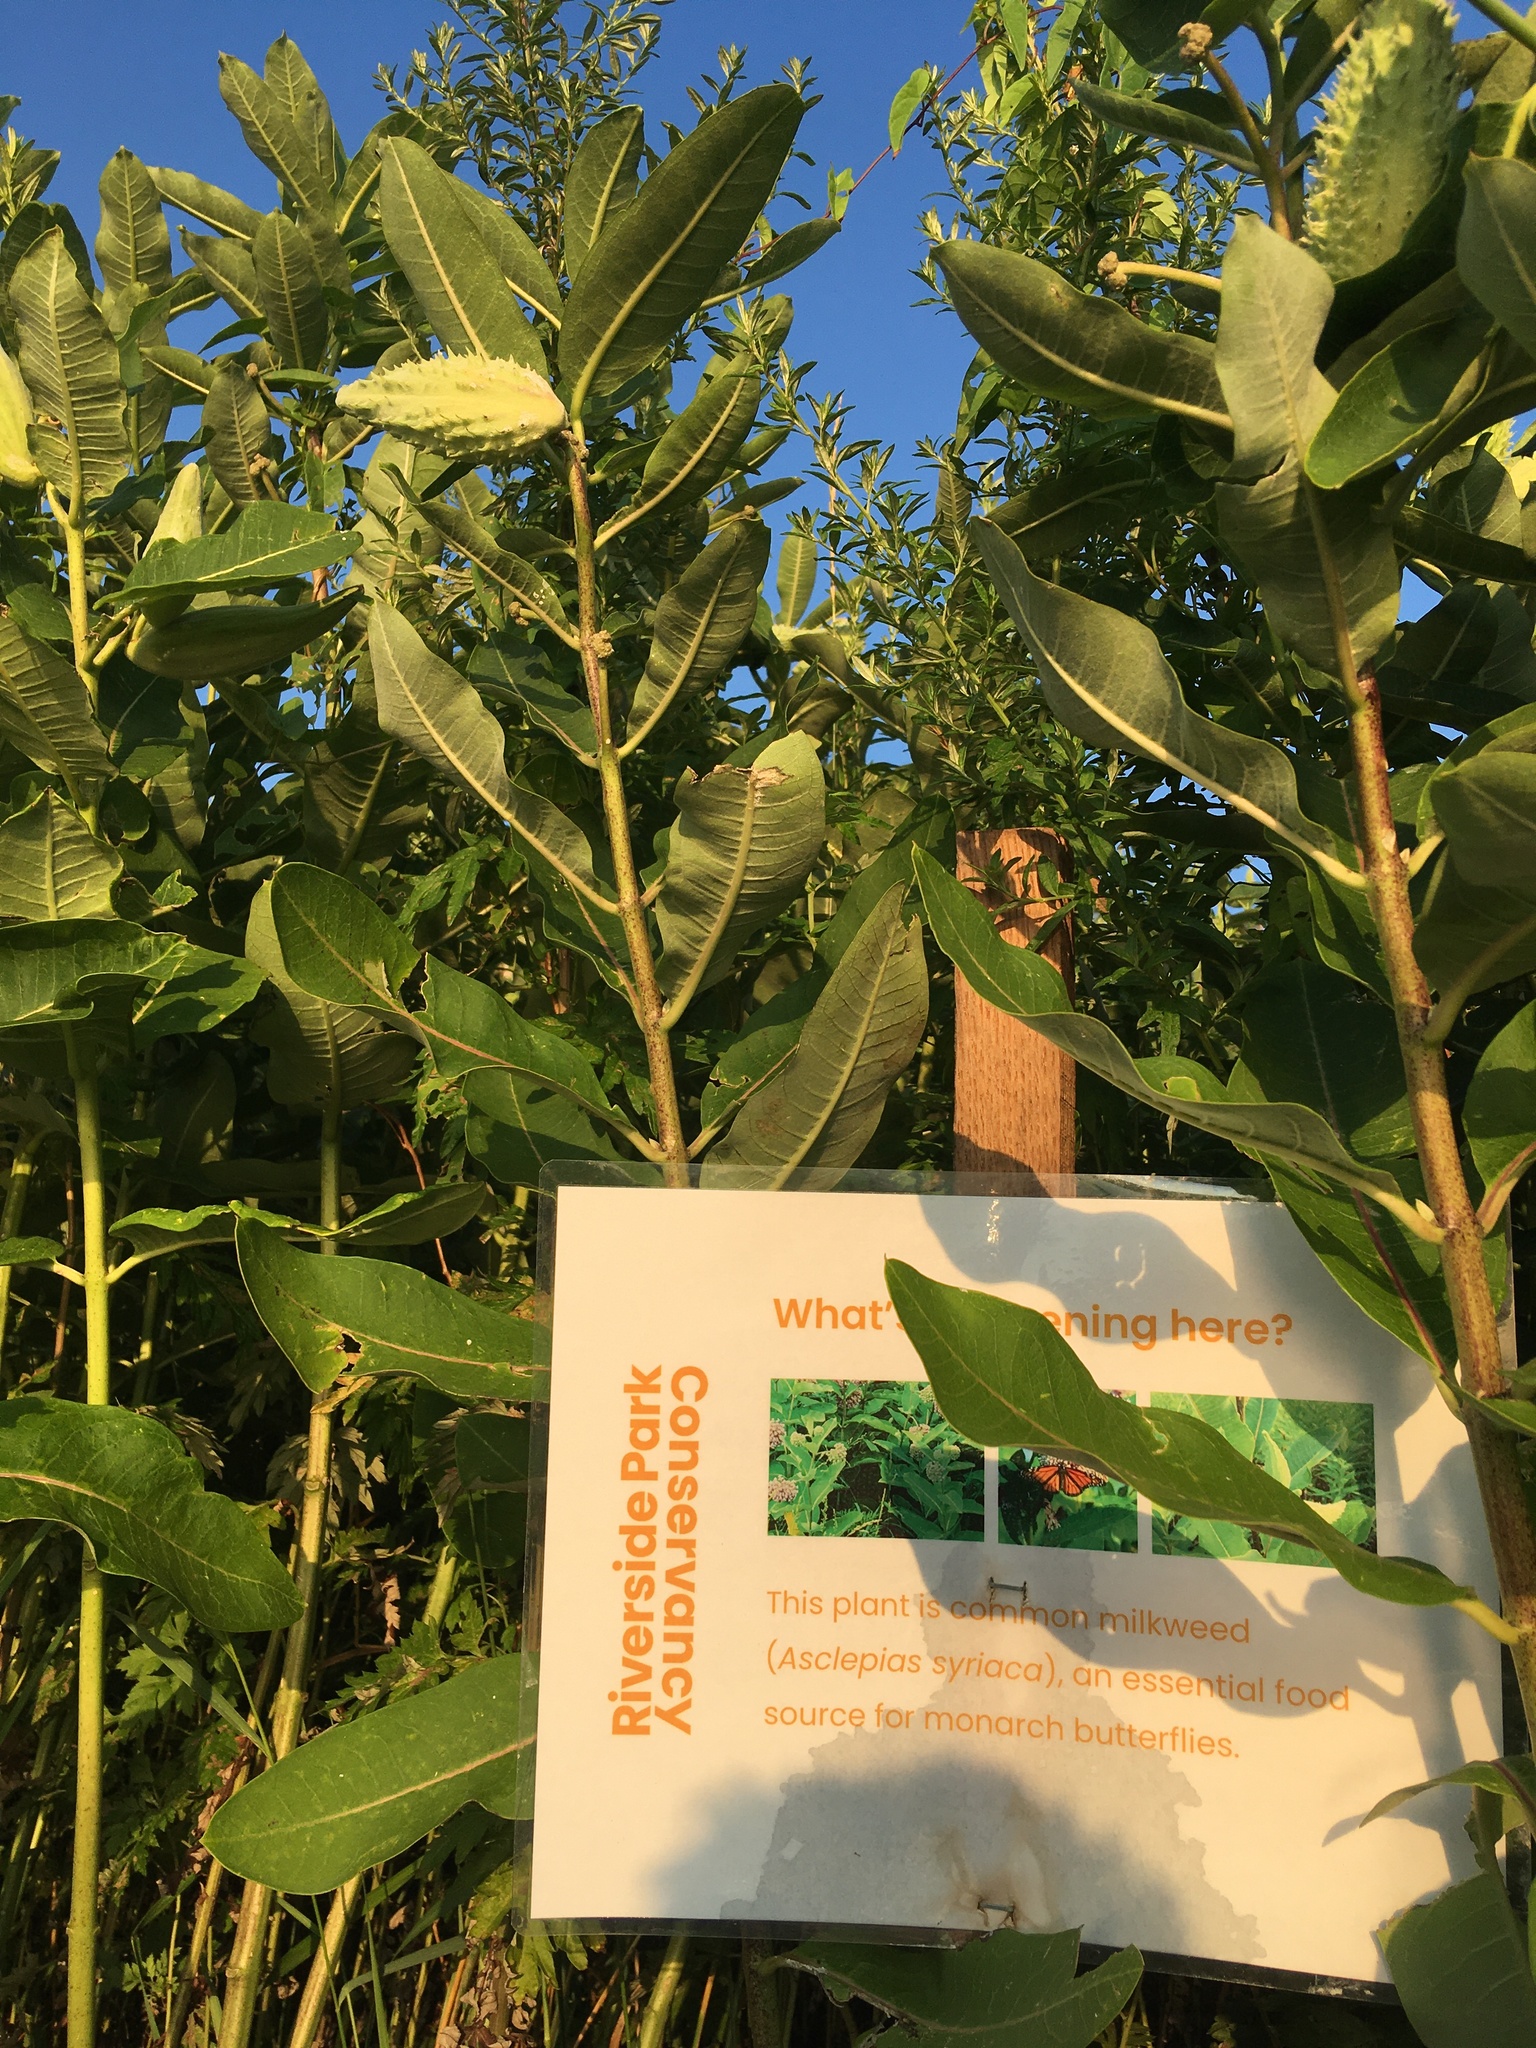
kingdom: Plantae
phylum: Tracheophyta
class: Magnoliopsida
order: Gentianales
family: Apocynaceae
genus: Asclepias
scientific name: Asclepias syriaca
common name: Common milkweed
